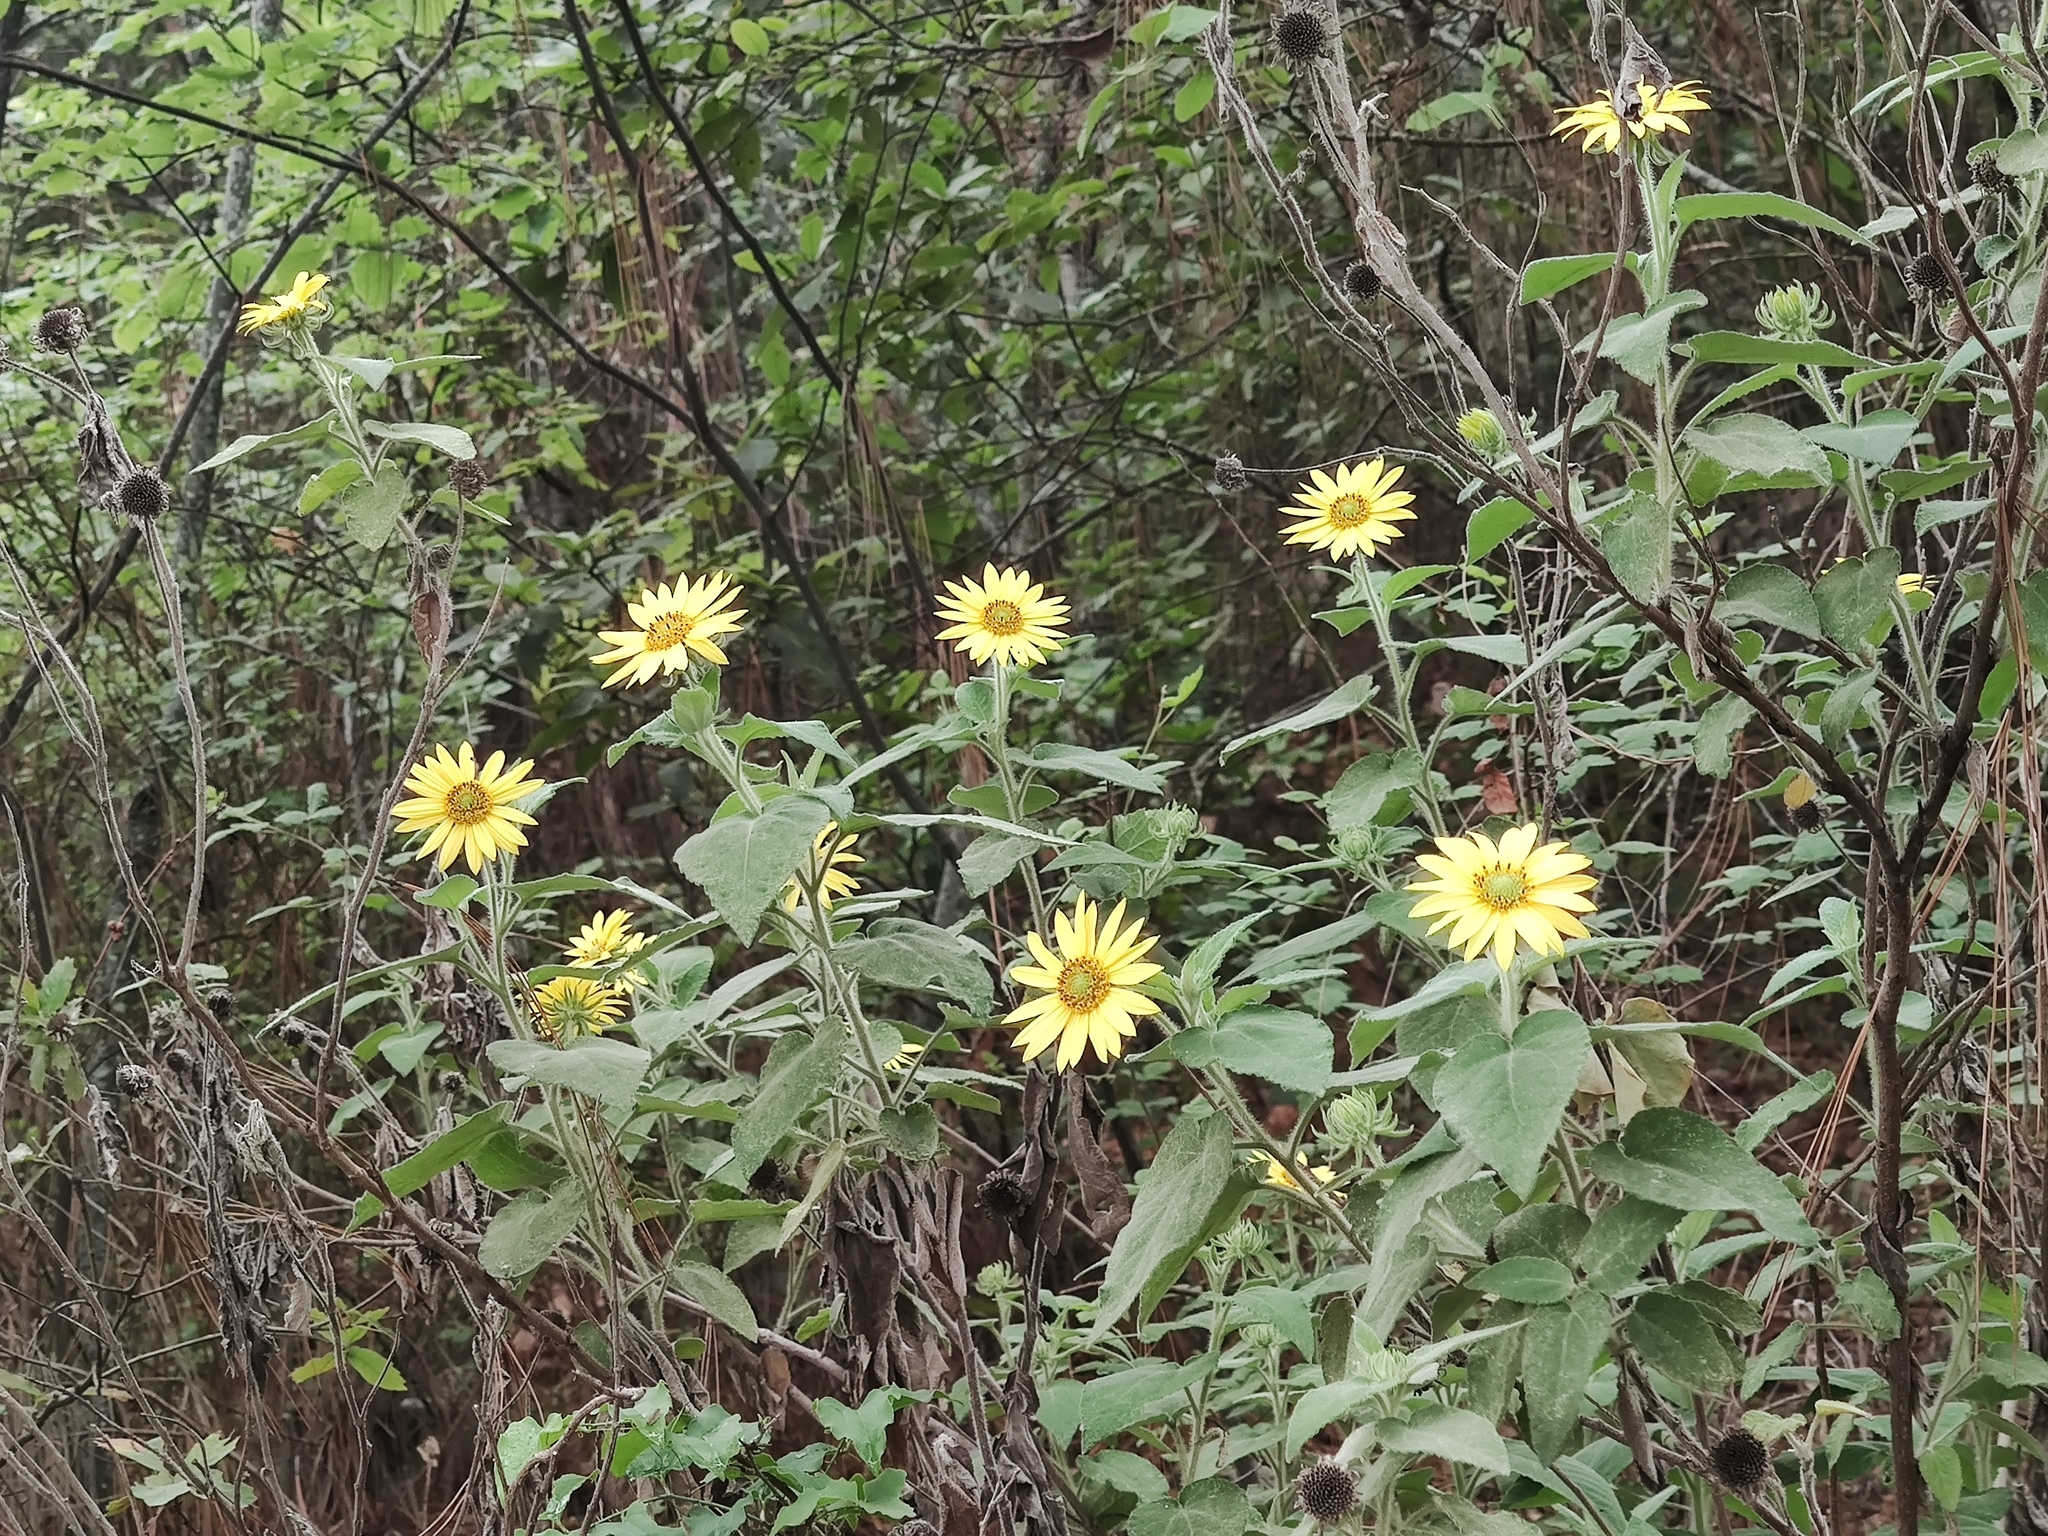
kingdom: Plantae
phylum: Tracheophyta
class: Magnoliopsida
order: Asterales
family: Asteraceae
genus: Vigethia
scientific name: Vigethia mexicana
